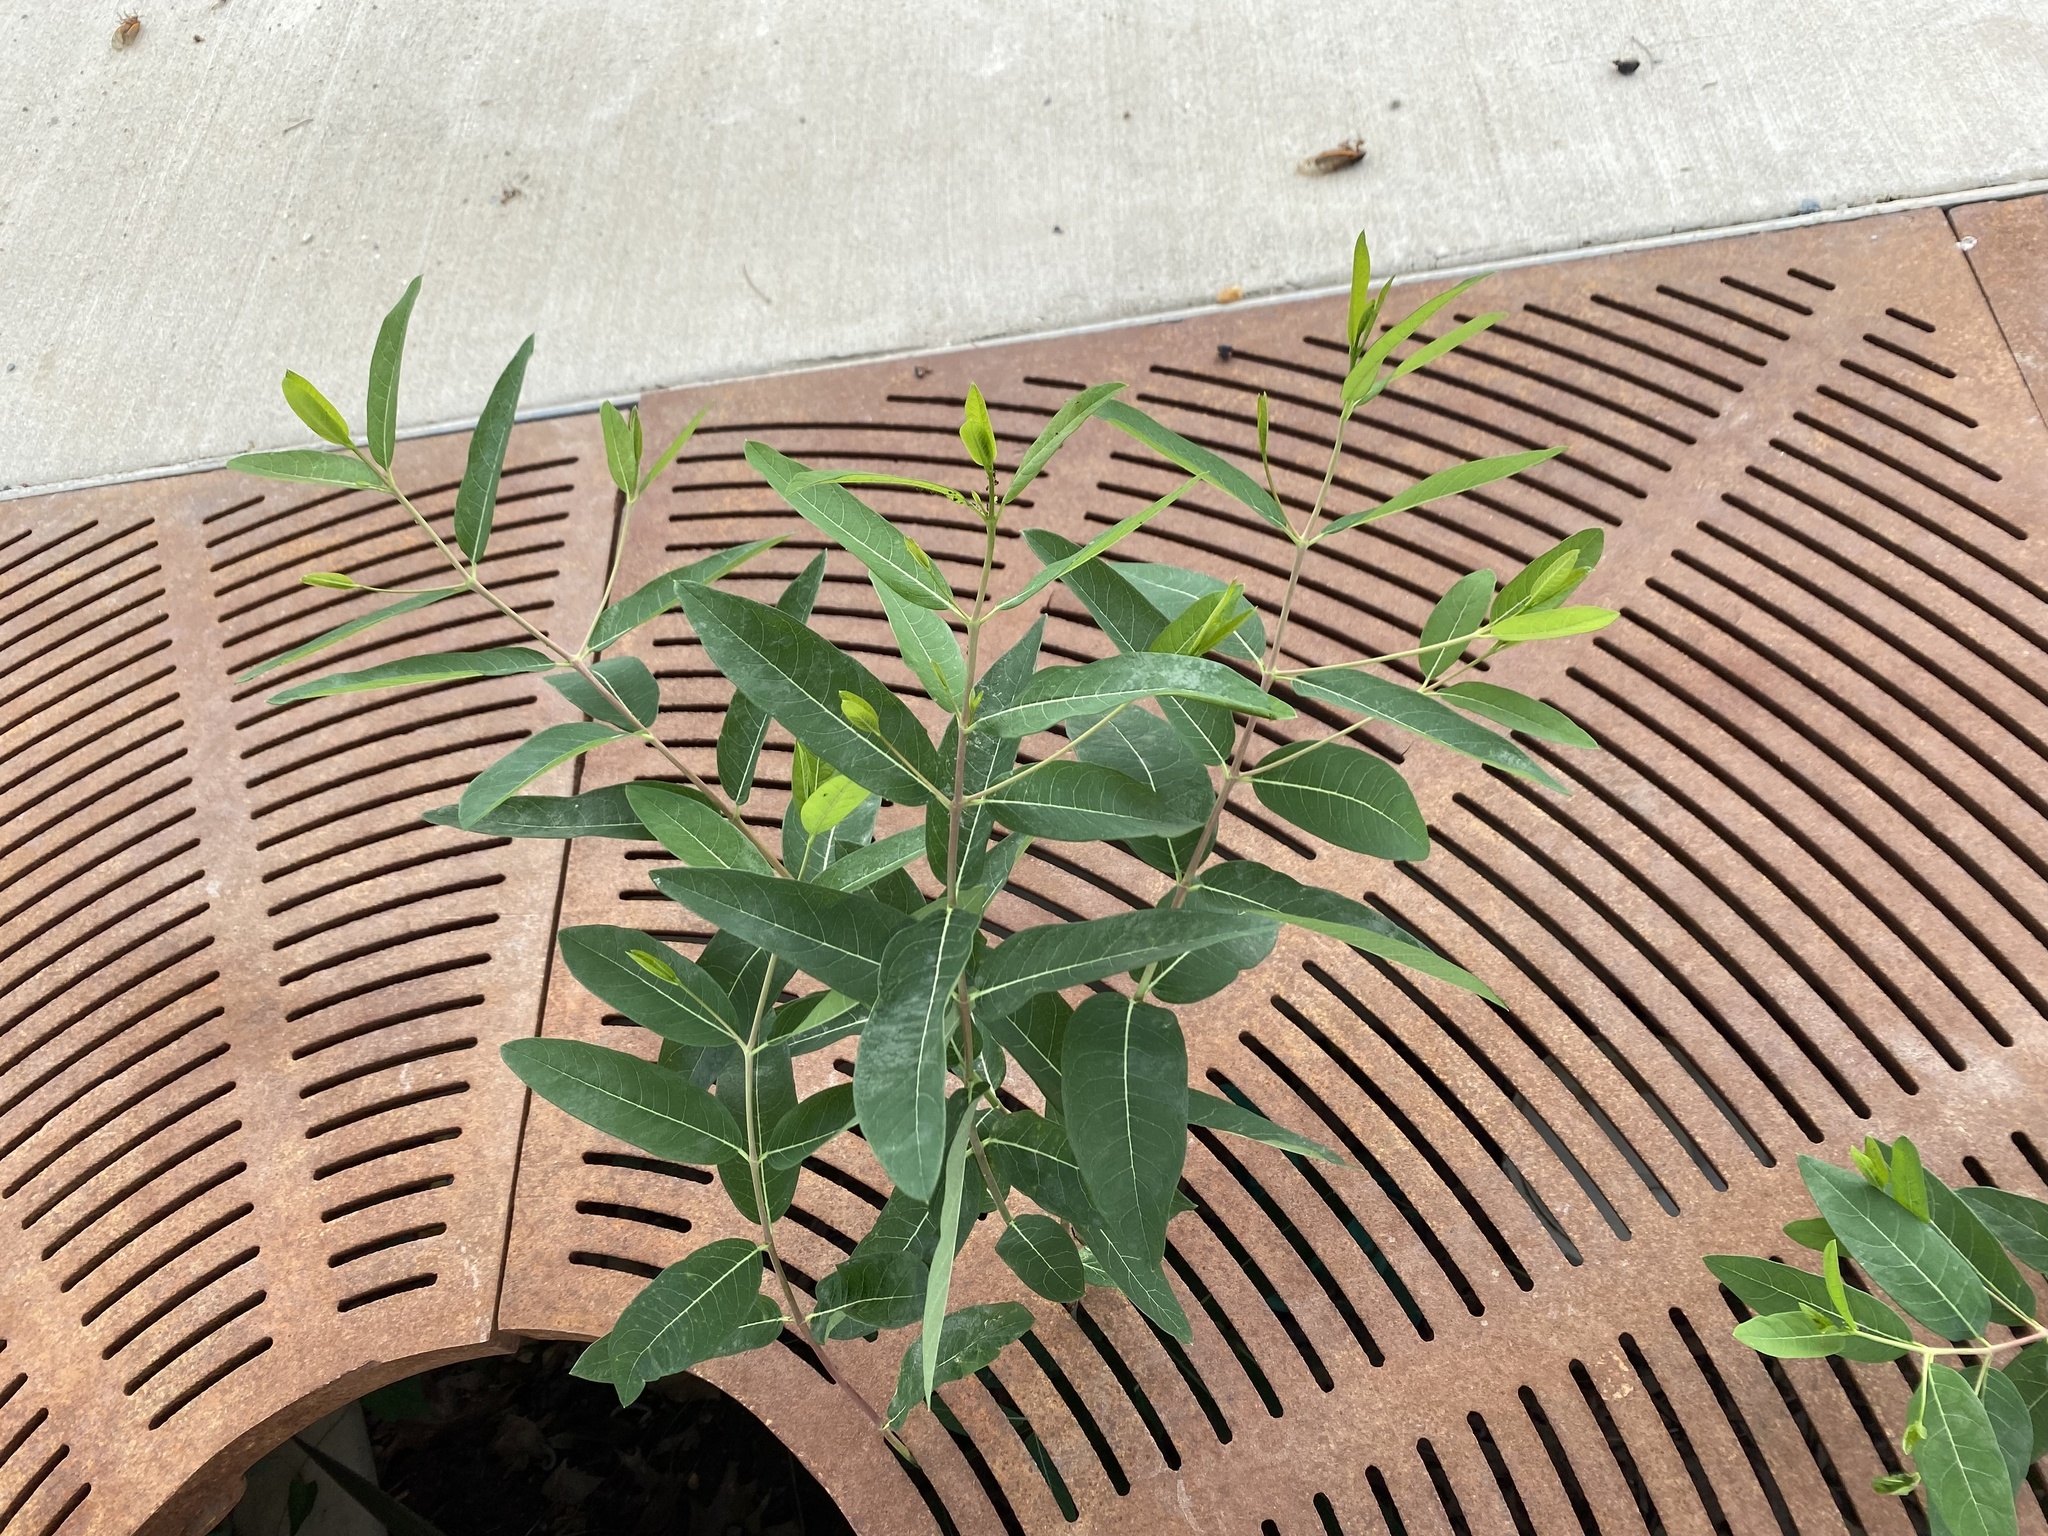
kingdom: Plantae
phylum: Tracheophyta
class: Magnoliopsida
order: Gentianales
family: Apocynaceae
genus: Apocynum
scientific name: Apocynum cannabinum
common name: Hemp dogbane
